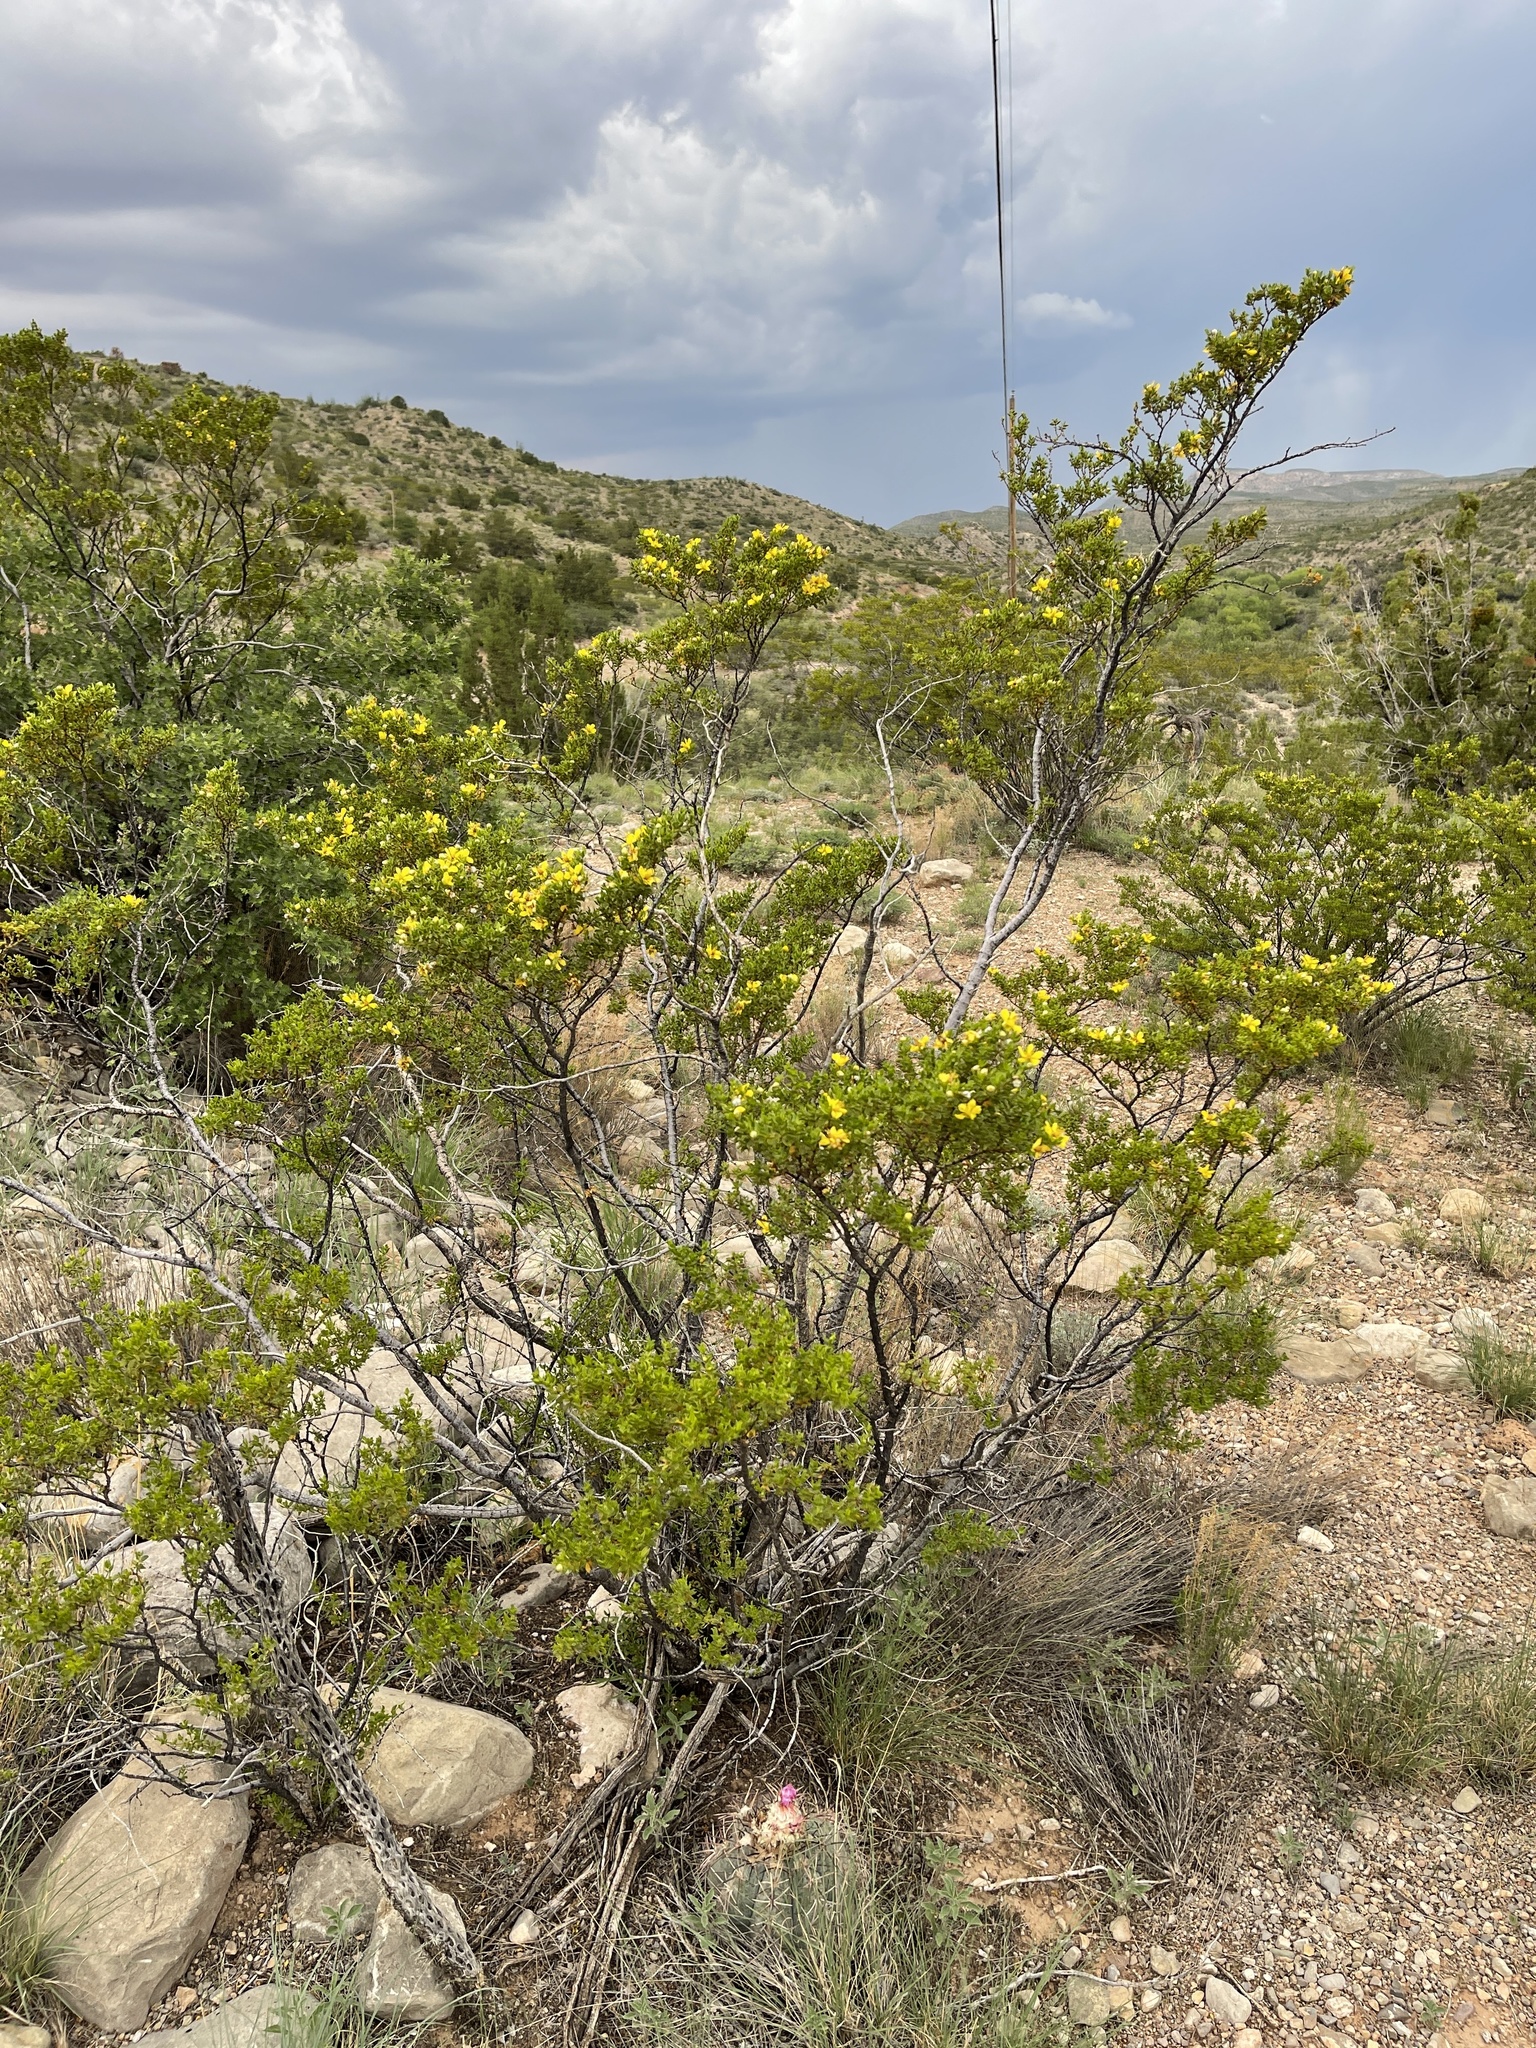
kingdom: Plantae
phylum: Tracheophyta
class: Magnoliopsida
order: Zygophyllales
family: Zygophyllaceae
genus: Larrea
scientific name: Larrea tridentata
